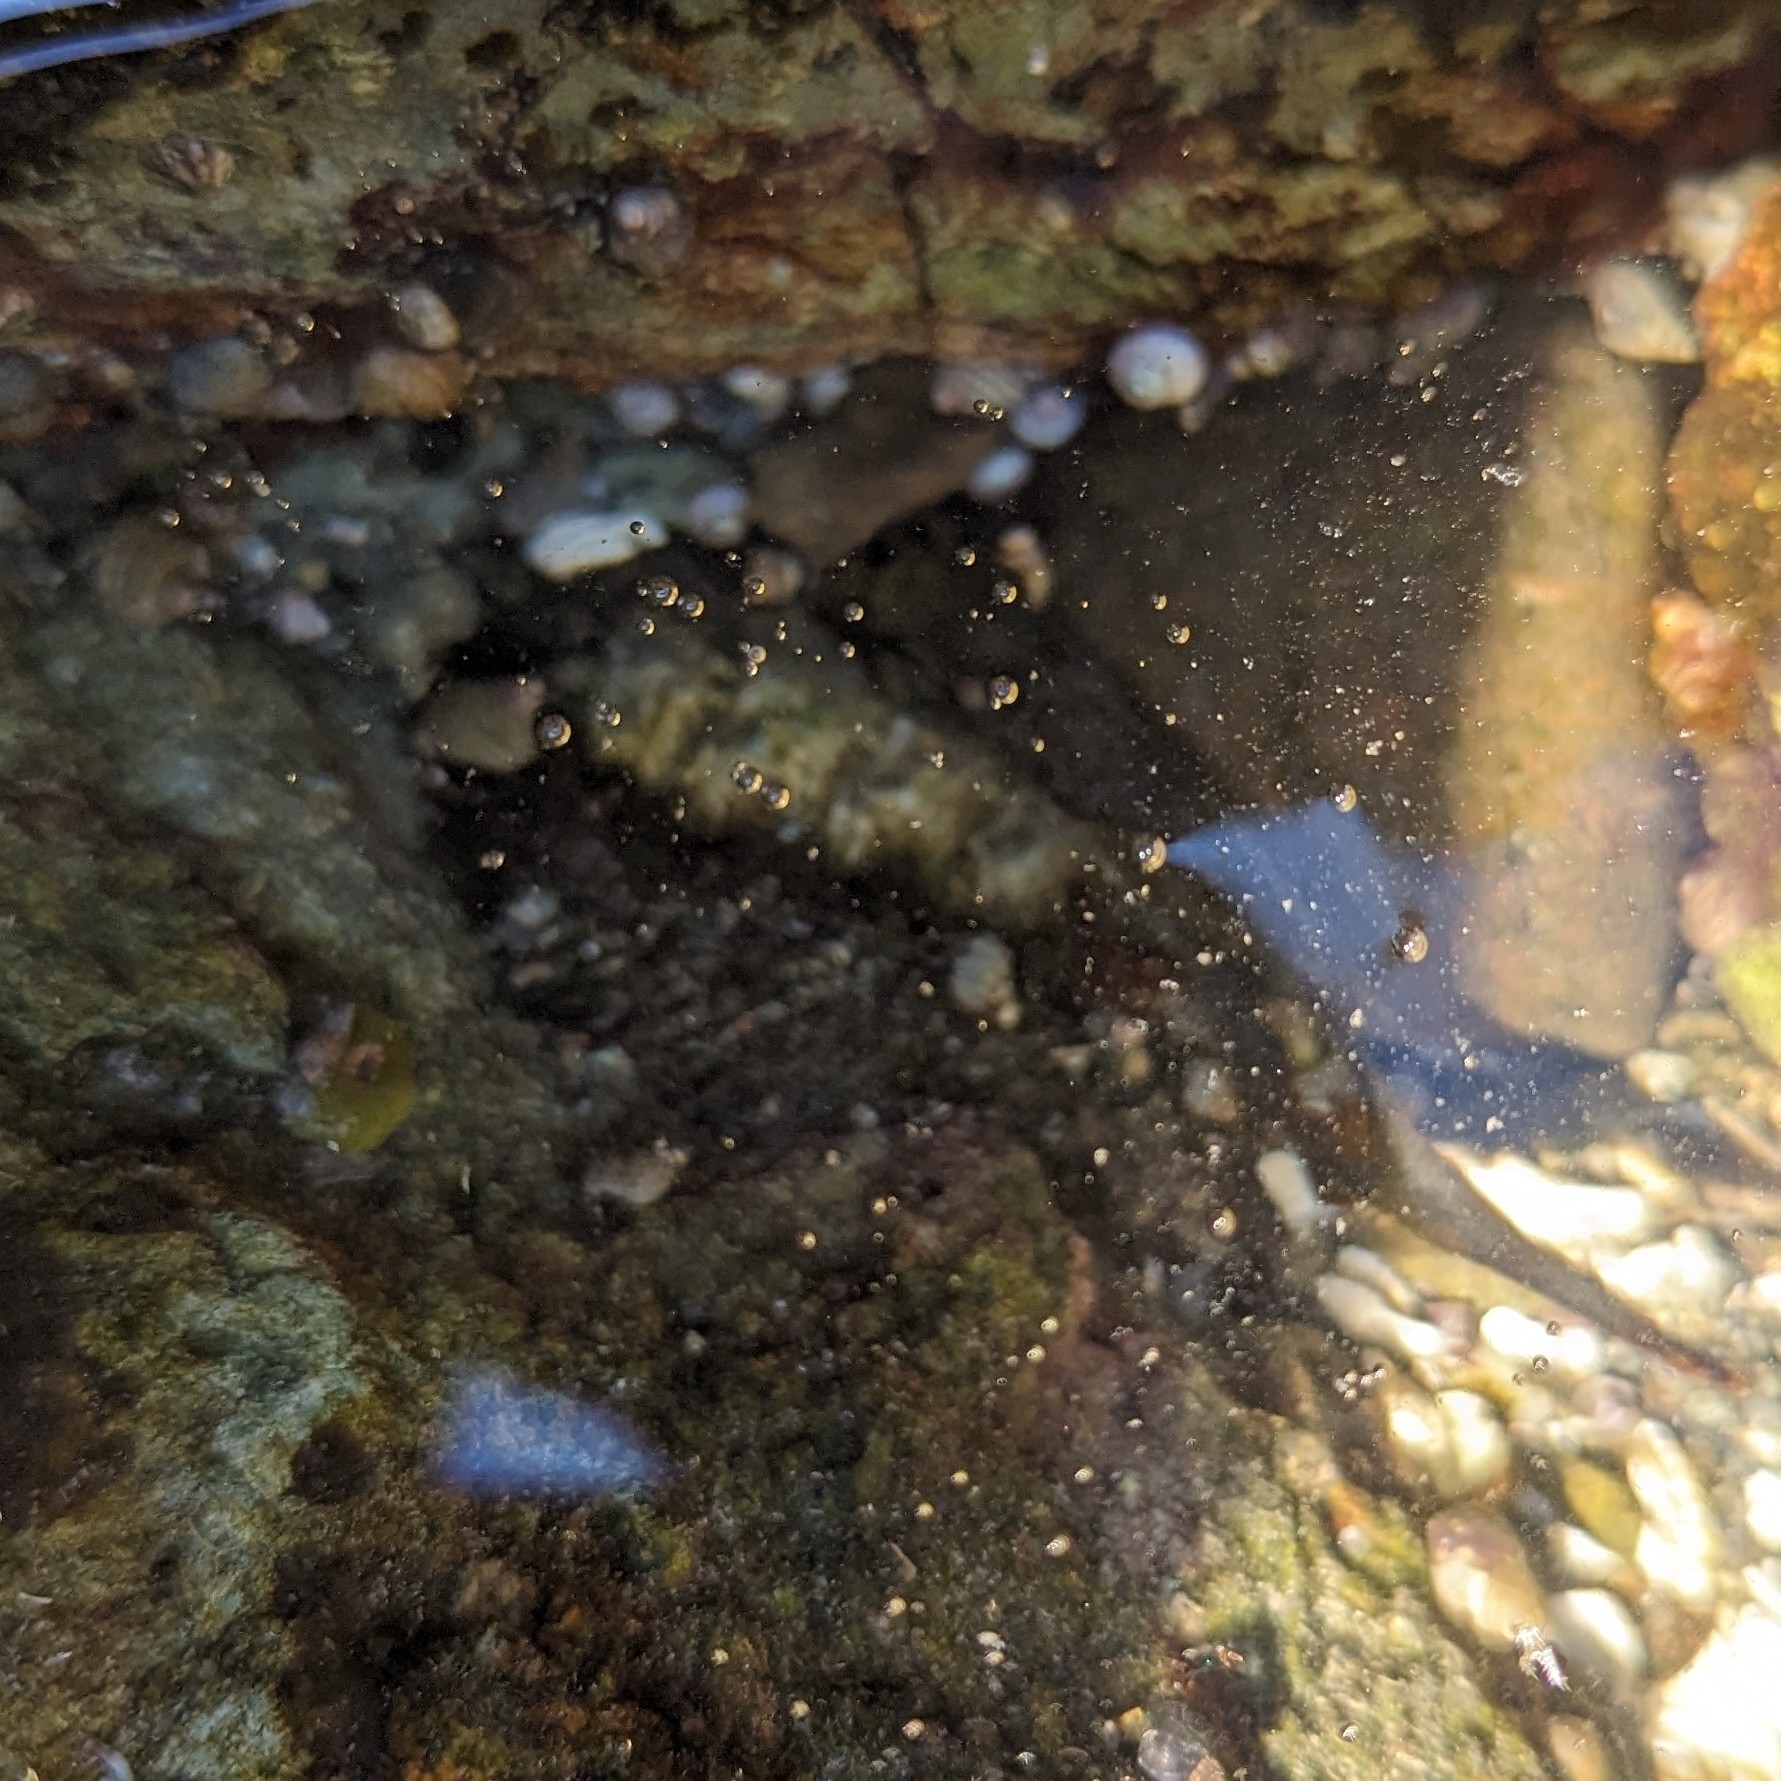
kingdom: Animalia
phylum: Mollusca
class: Polyplacophora
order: Chitonida
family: Mopaliidae
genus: Mopalia
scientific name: Mopalia muscosa
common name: Mossy chiton
